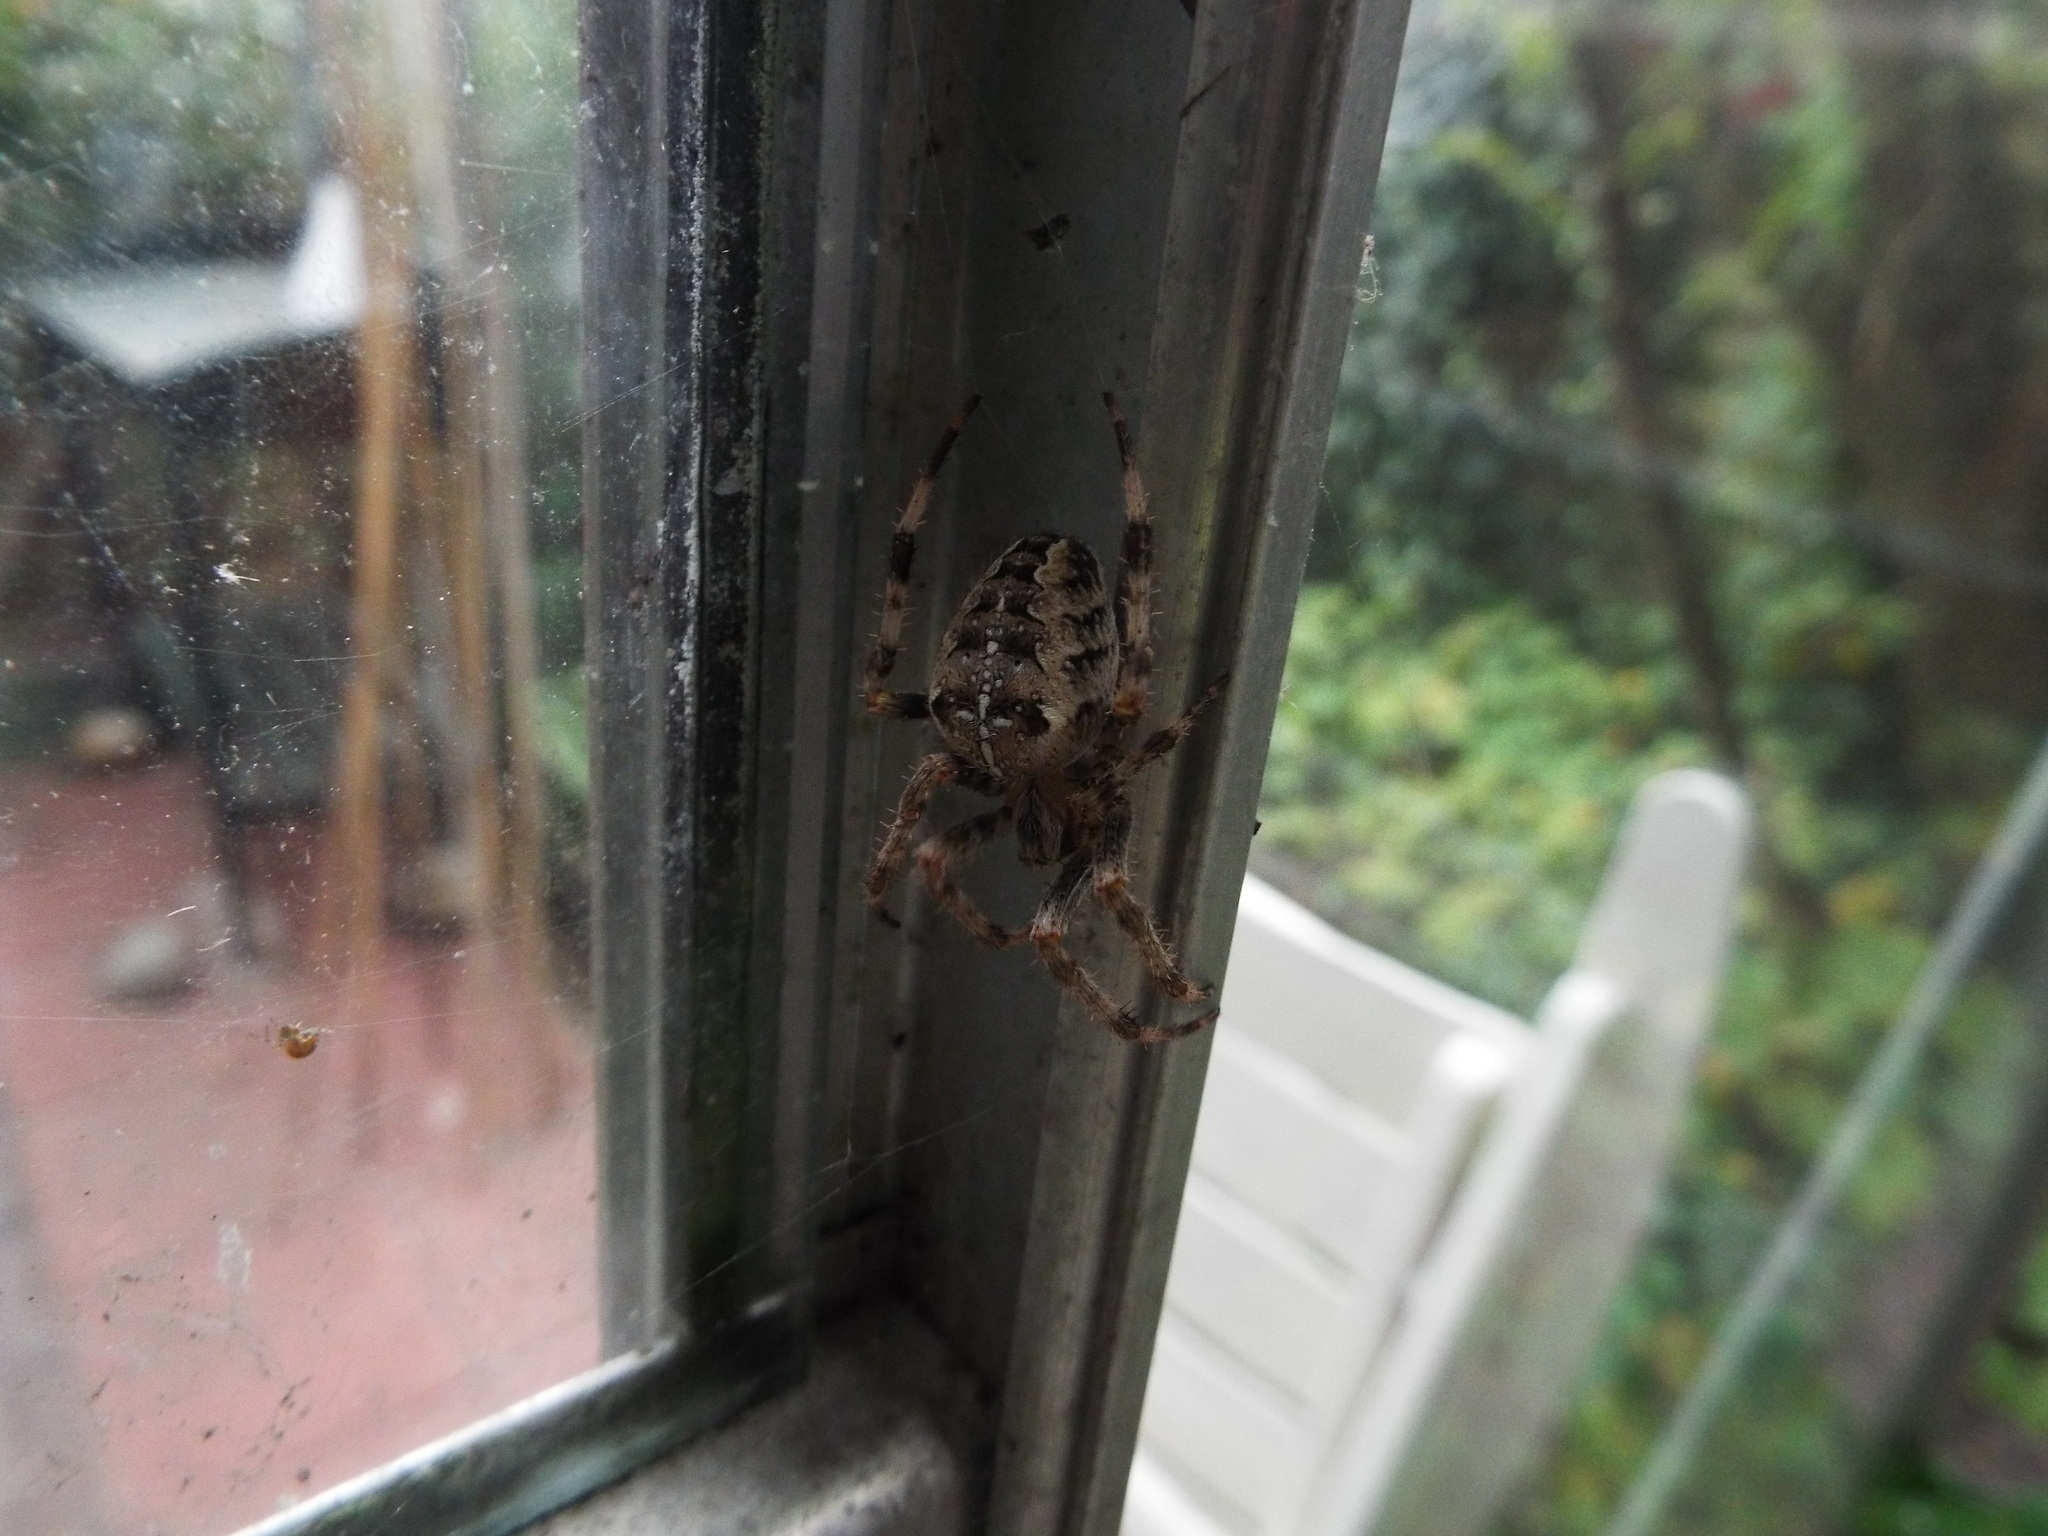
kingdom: Animalia
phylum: Arthropoda
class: Arachnida
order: Araneae
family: Araneidae
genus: Araneus
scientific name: Araneus diadematus
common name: Cross orbweaver
